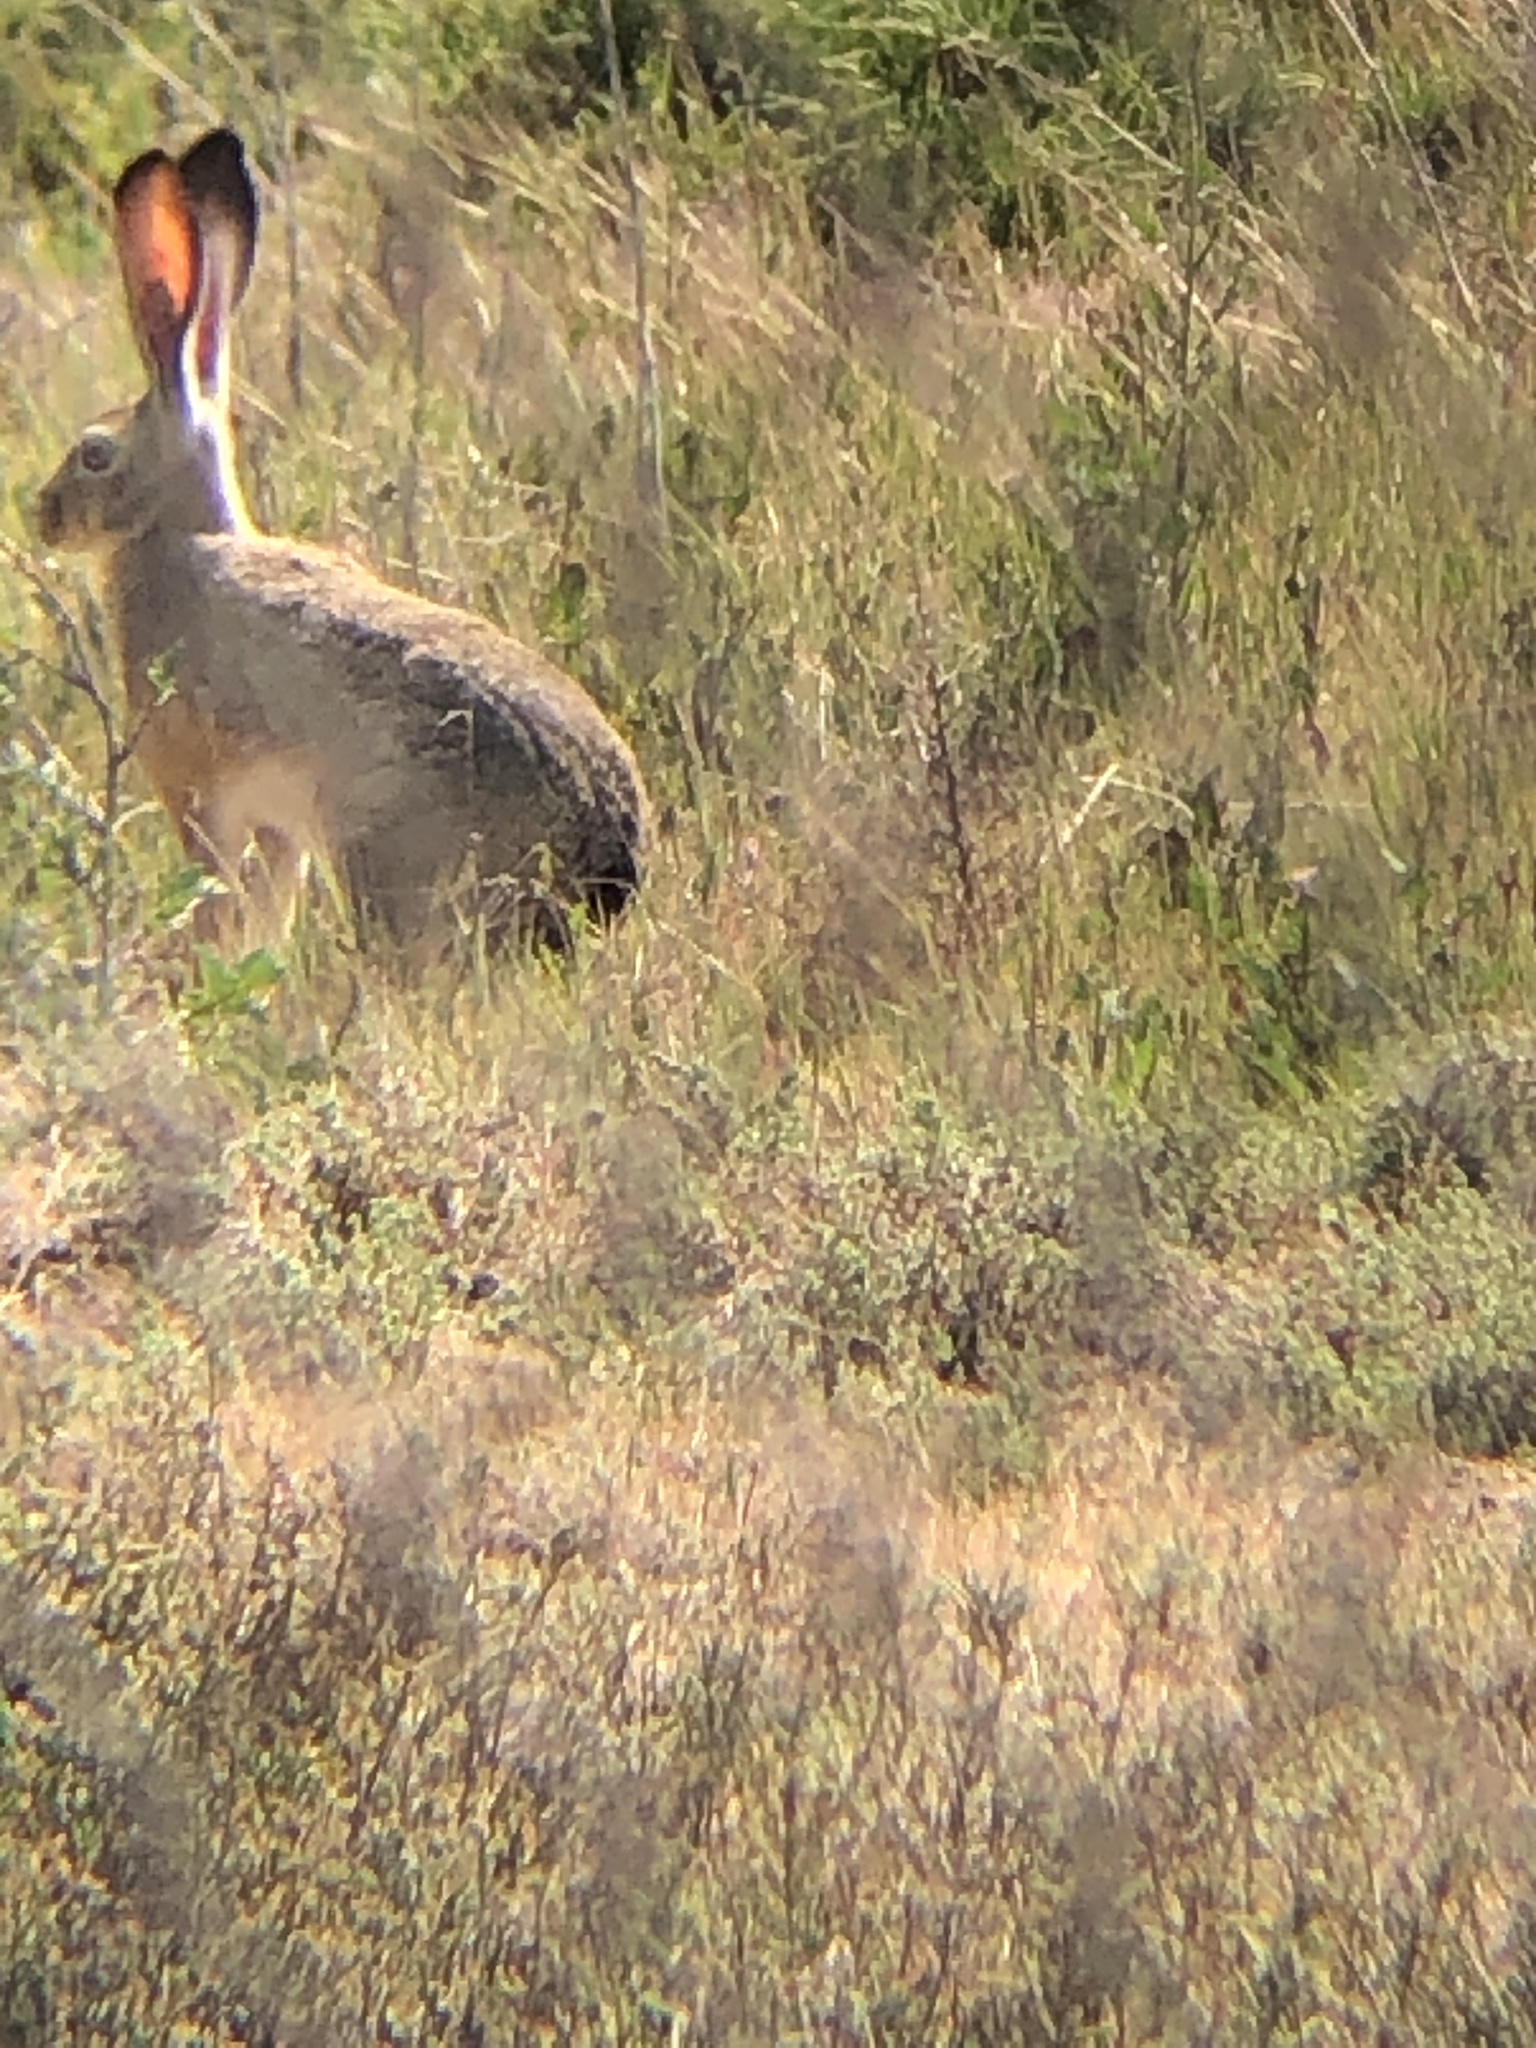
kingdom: Animalia
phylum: Chordata
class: Mammalia
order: Lagomorpha
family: Leporidae
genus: Lepus
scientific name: Lepus californicus
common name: Black-tailed jackrabbit
